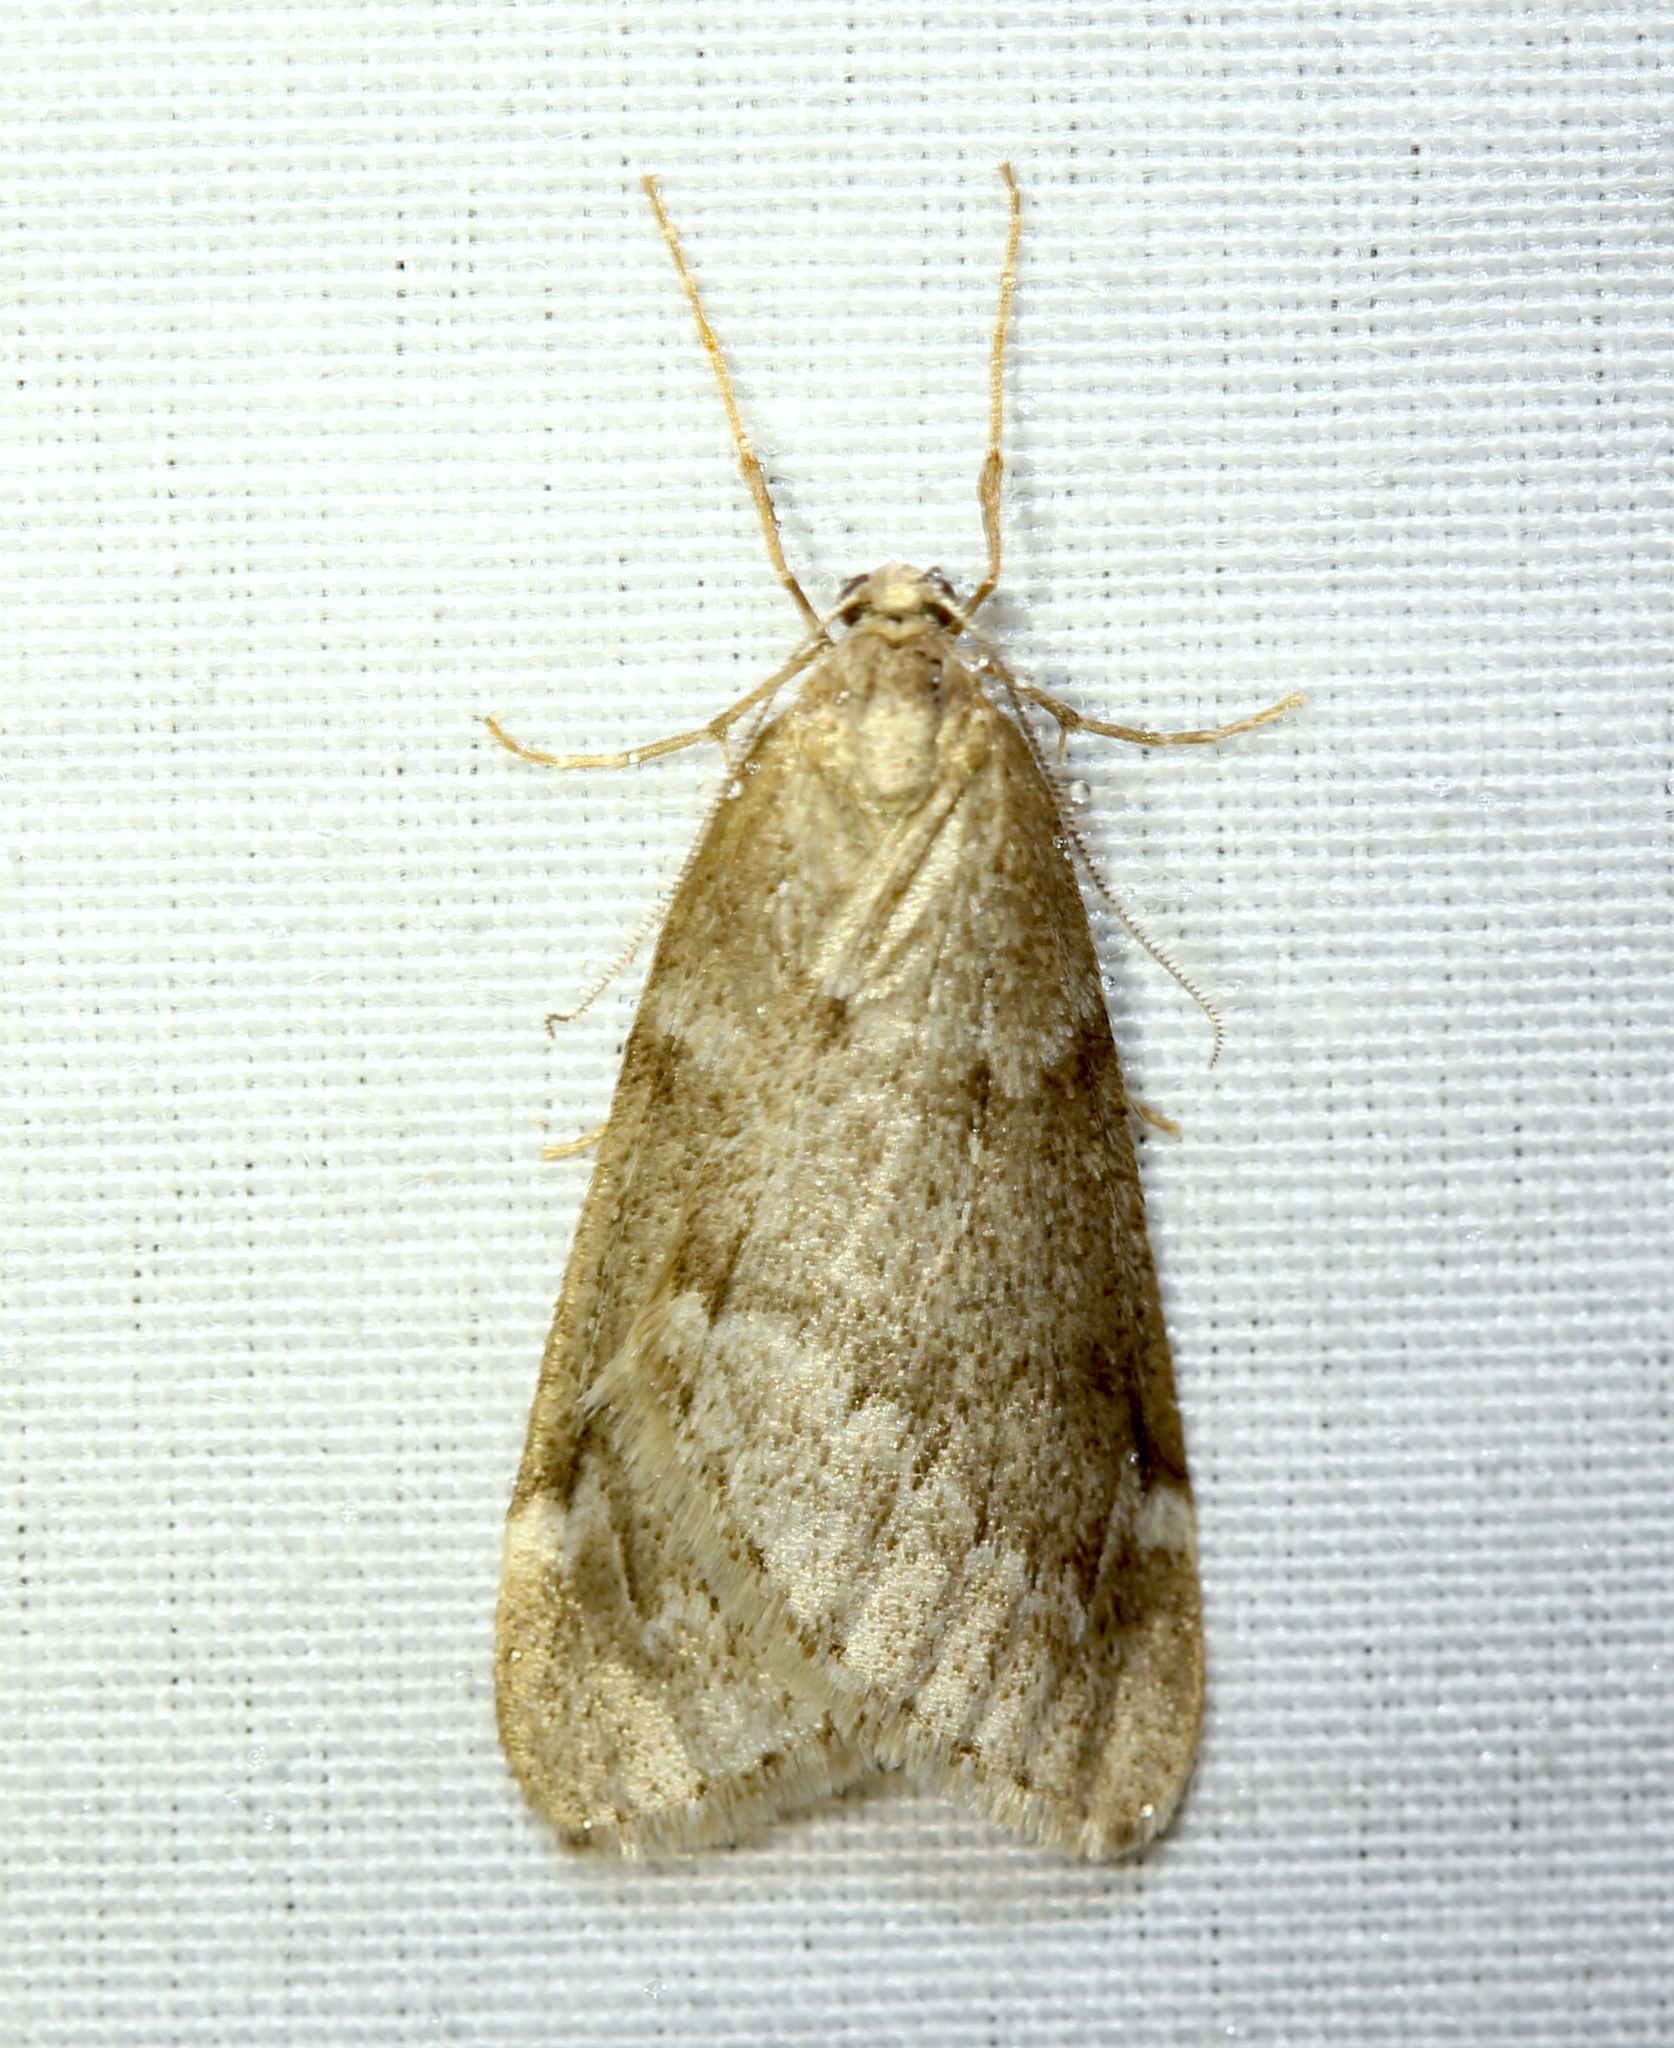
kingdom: Animalia
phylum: Arthropoda
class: Insecta
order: Lepidoptera
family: Geometridae
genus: Alsophila
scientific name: Alsophila pometaria
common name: Fall cankerworm
